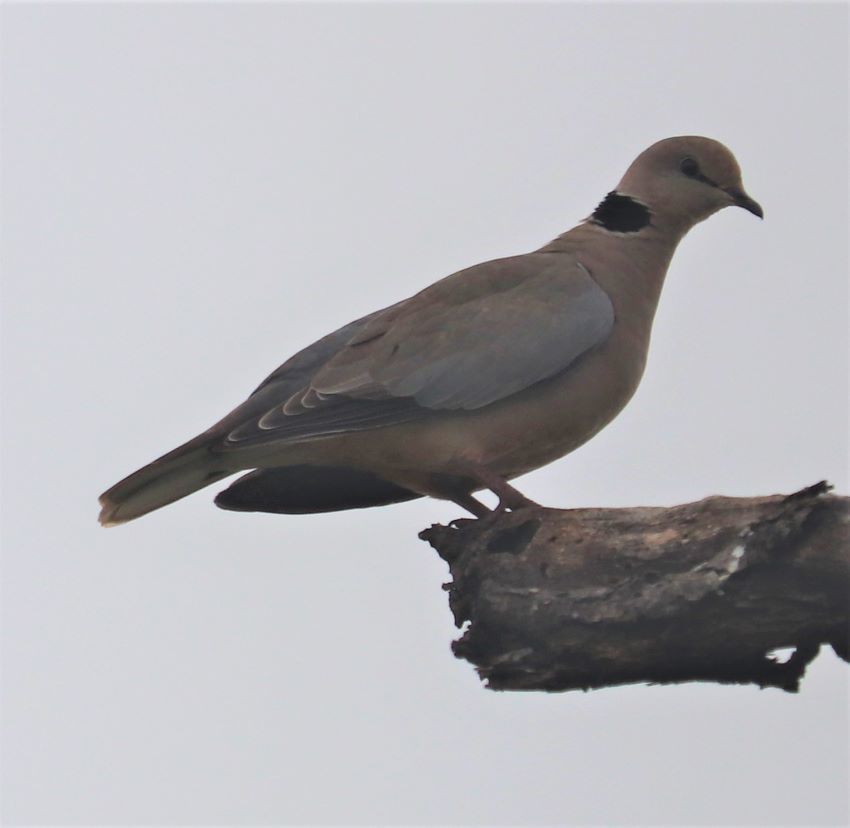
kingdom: Animalia
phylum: Chordata
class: Aves
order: Columbiformes
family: Columbidae
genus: Streptopelia
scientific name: Streptopelia capicola
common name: Ring-necked dove
